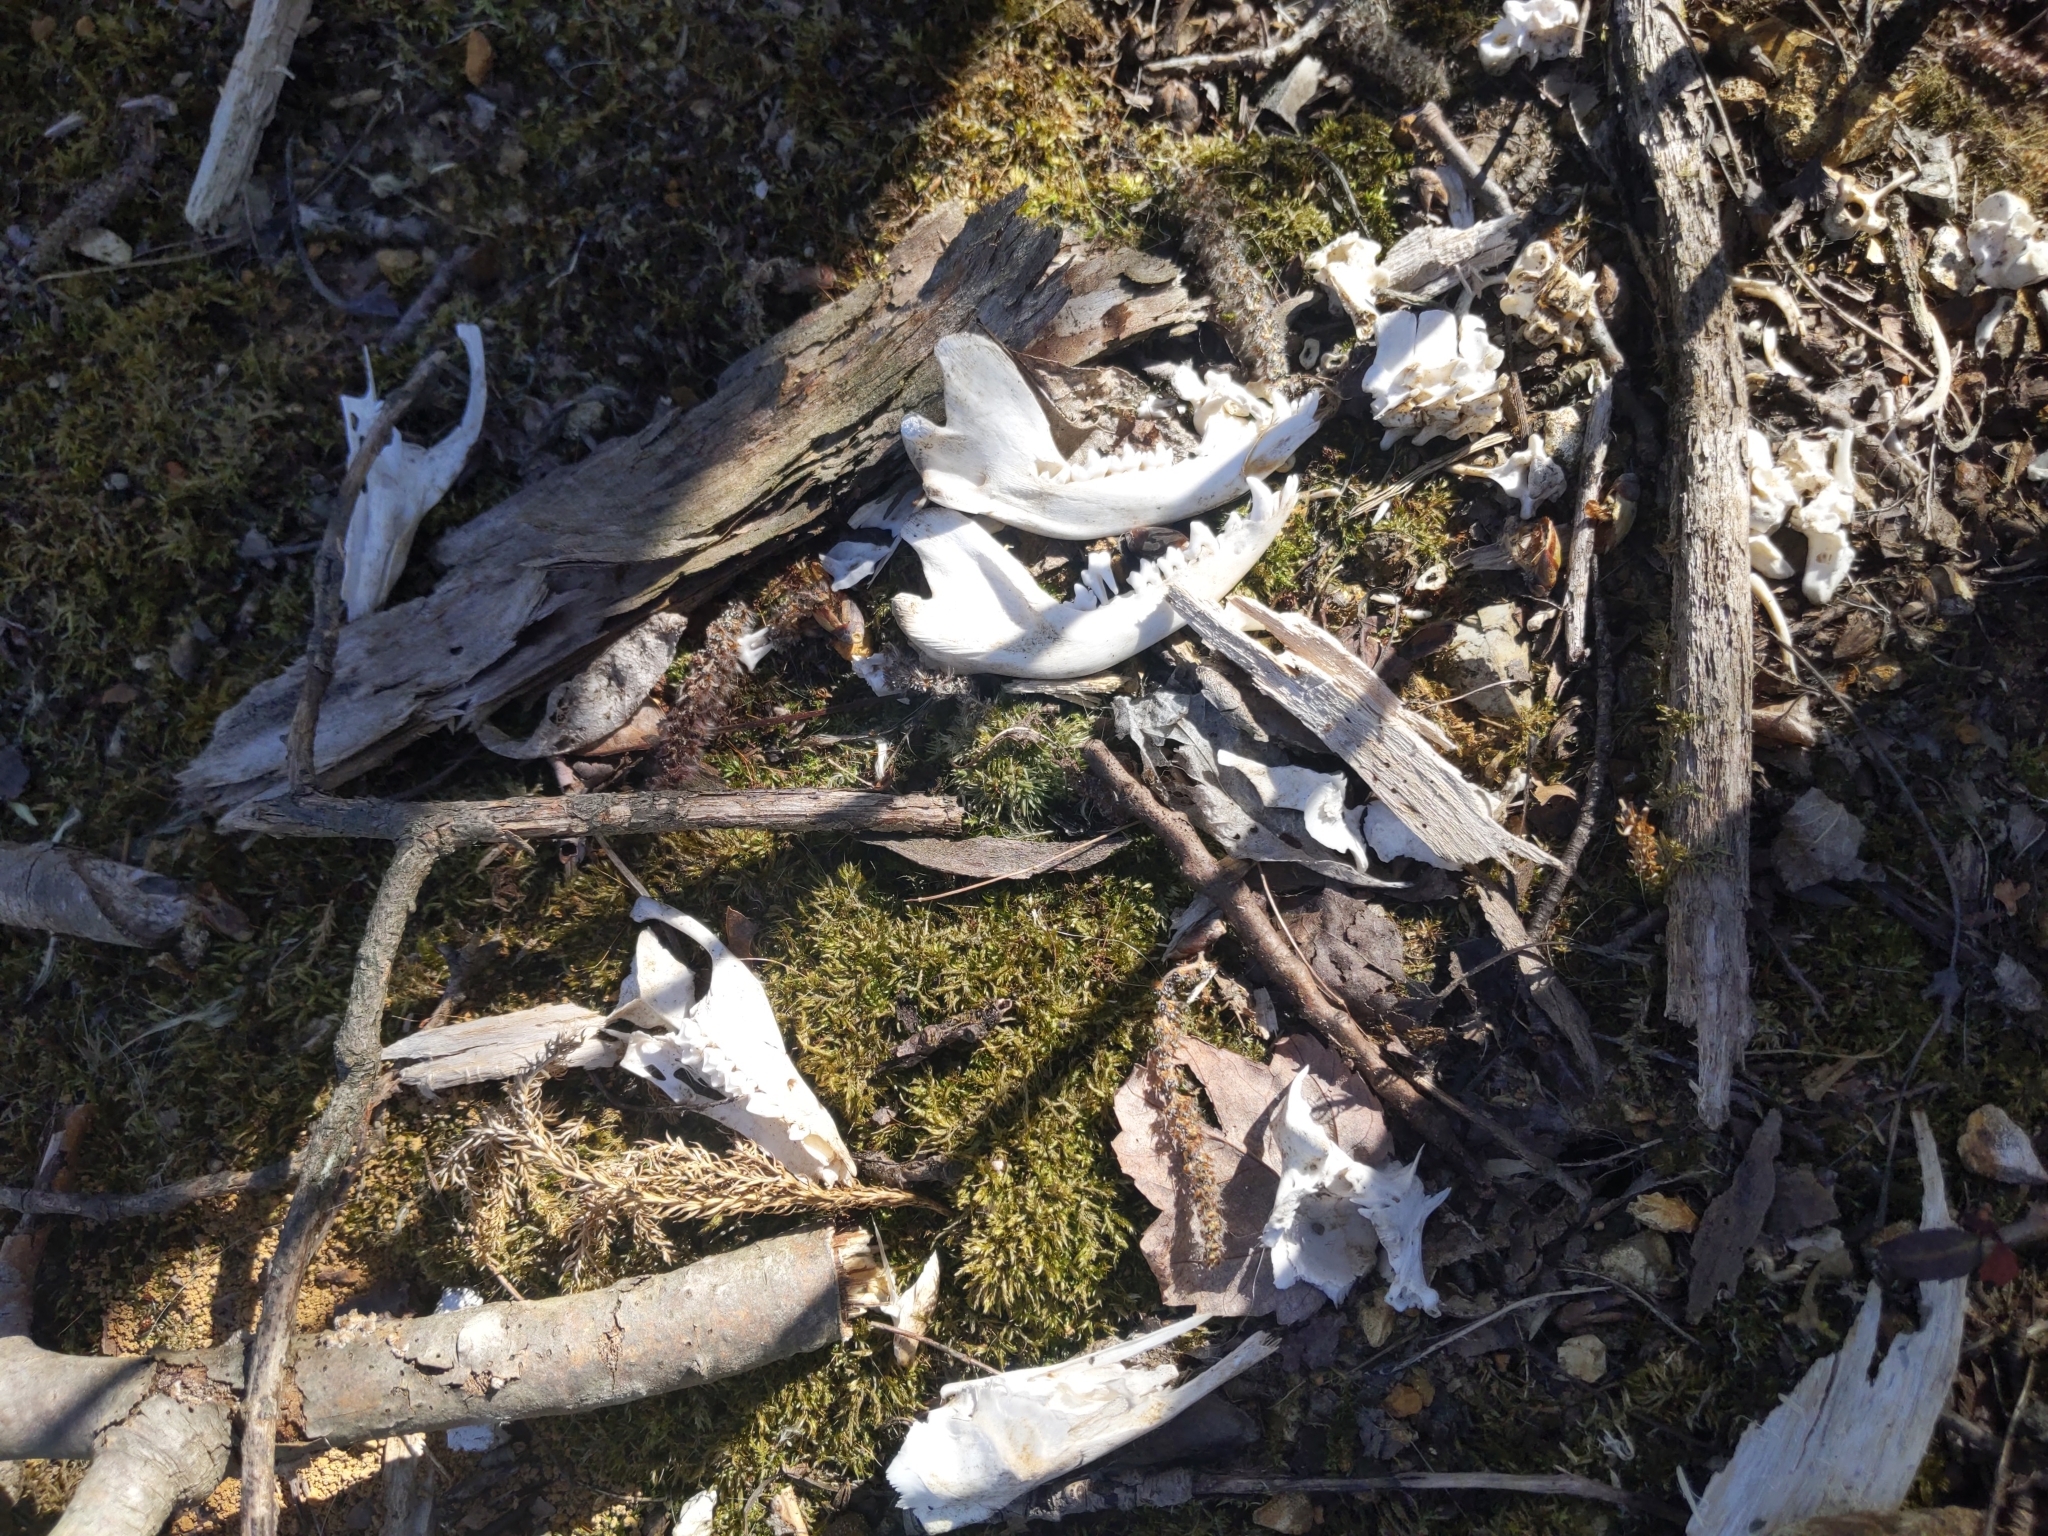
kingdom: Animalia
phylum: Chordata
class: Mammalia
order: Didelphimorphia
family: Didelphidae
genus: Didelphis
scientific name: Didelphis virginiana
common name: Virginia opossum
